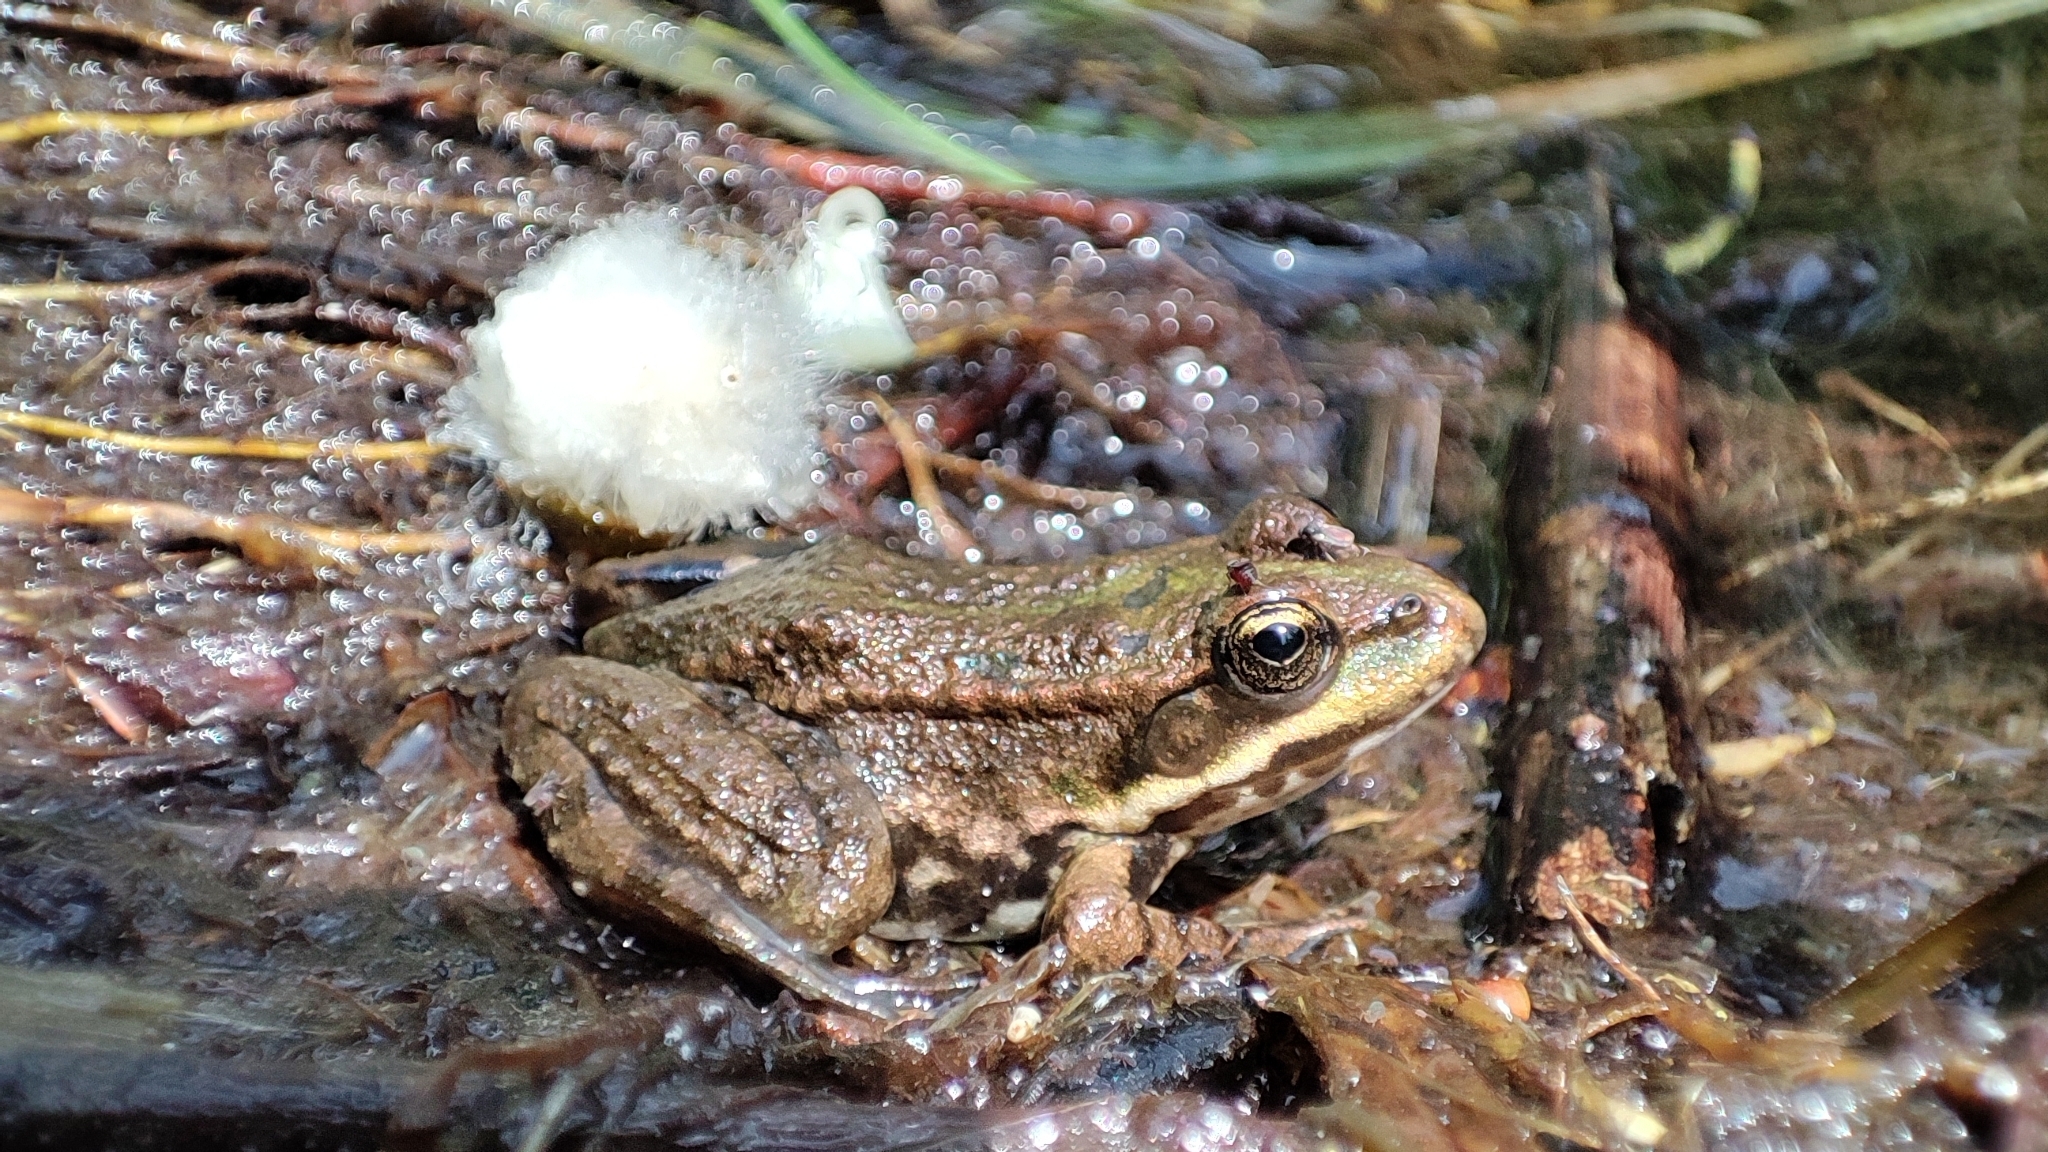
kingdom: Animalia
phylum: Chordata
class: Amphibia
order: Anura
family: Ranidae
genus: Pelophylax
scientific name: Pelophylax
